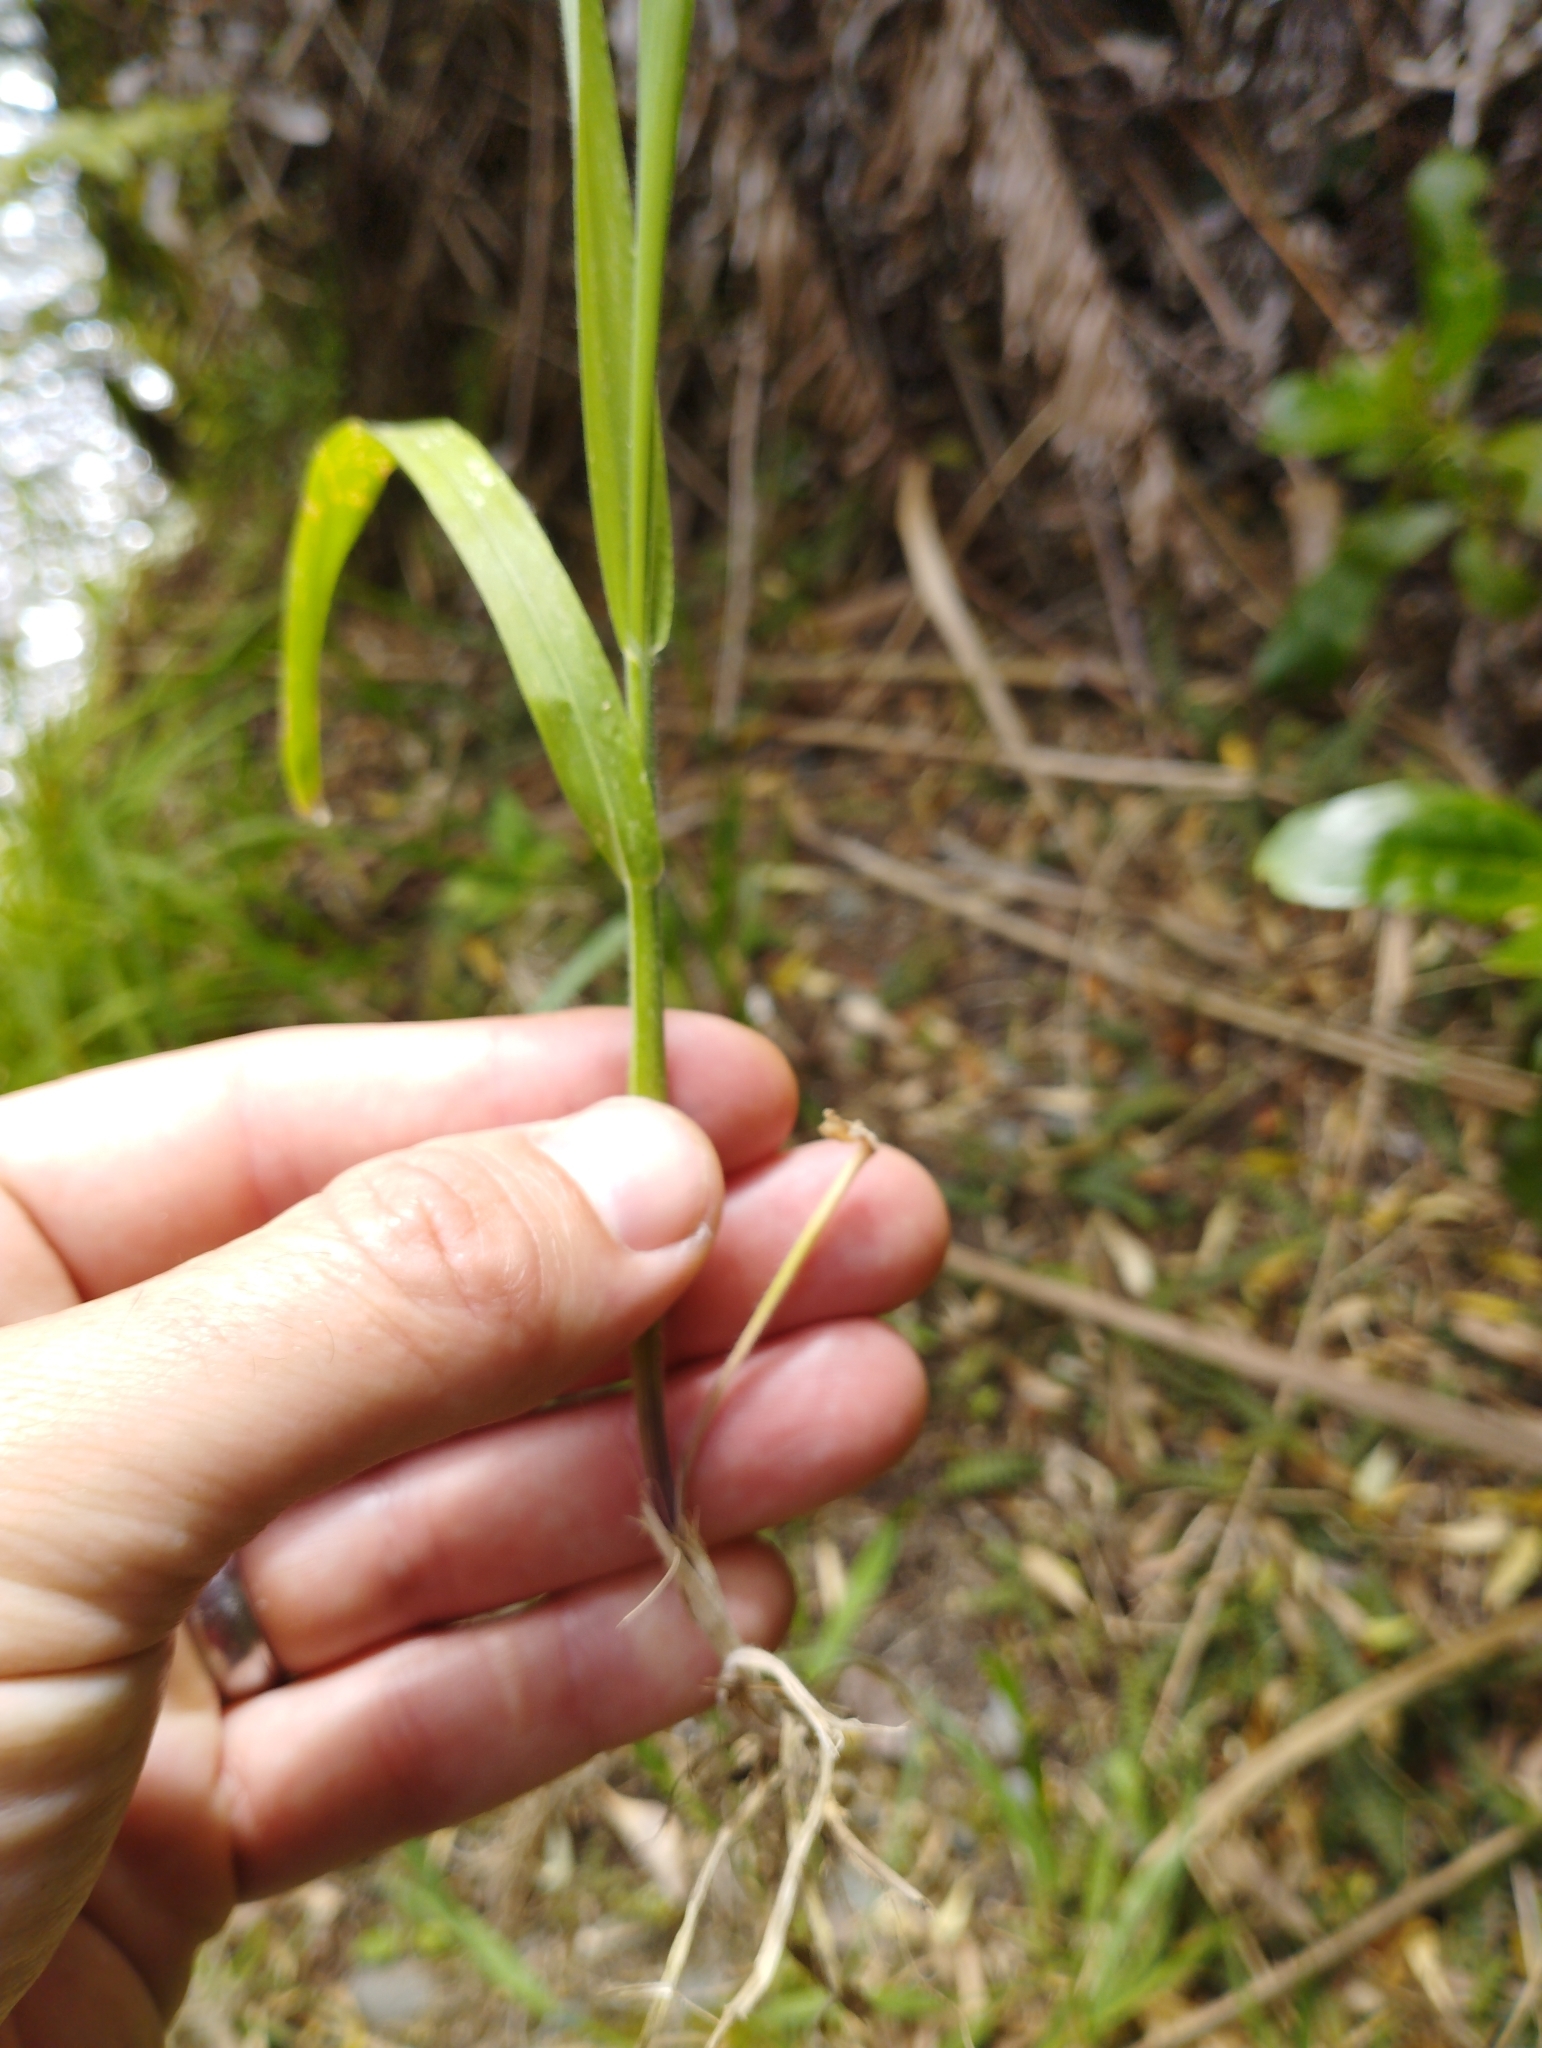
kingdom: Plantae
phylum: Tracheophyta
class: Liliopsida
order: Poales
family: Poaceae
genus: Holcus
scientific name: Holcus lanatus
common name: Yorkshire-fog
